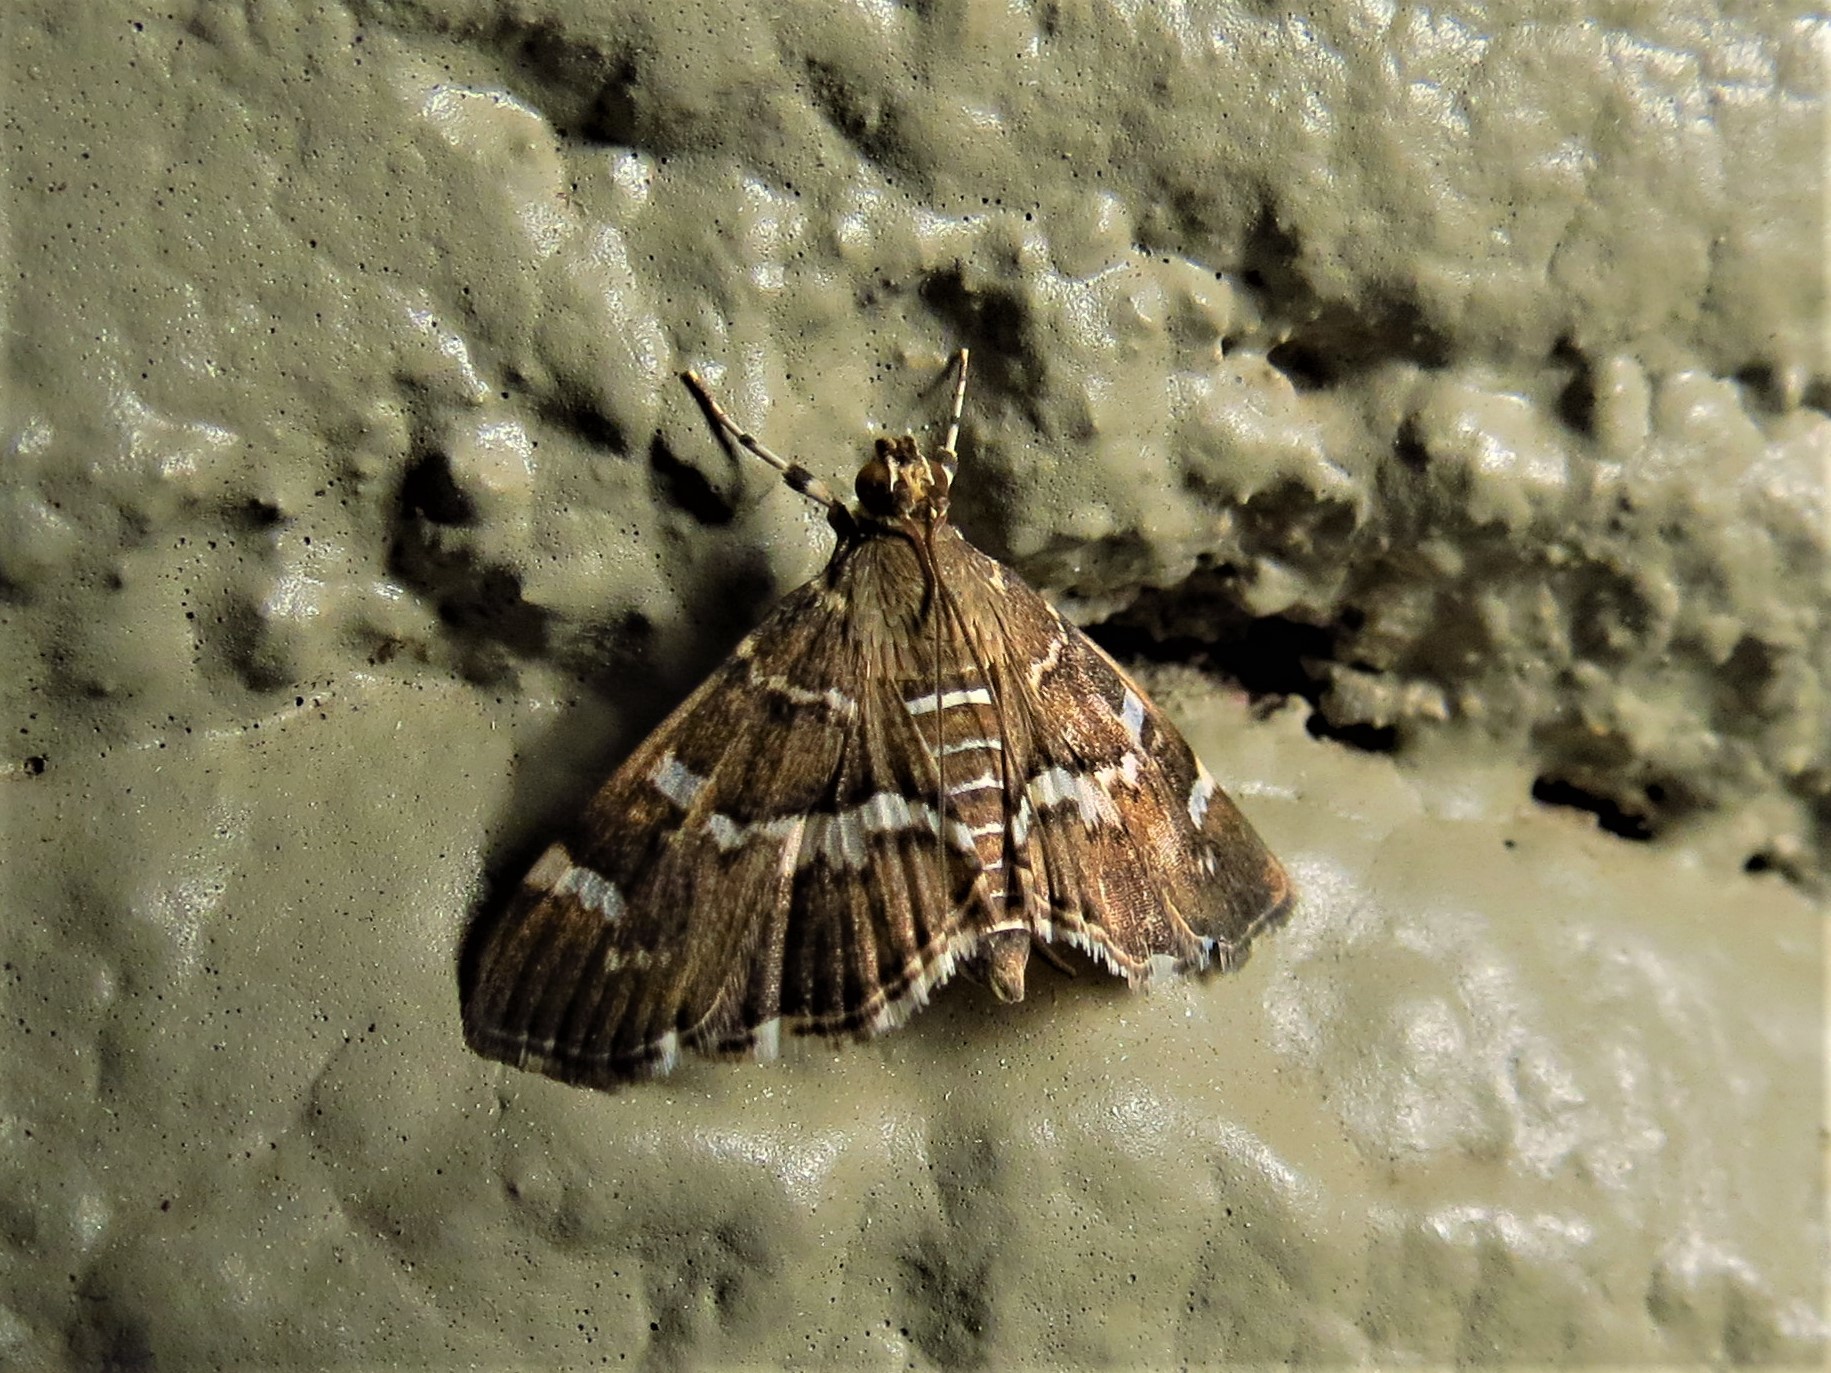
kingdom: Animalia
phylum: Arthropoda
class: Insecta
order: Lepidoptera
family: Crambidae
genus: Hymenia
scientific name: Hymenia perspectalis
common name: Spotted beet webworm
